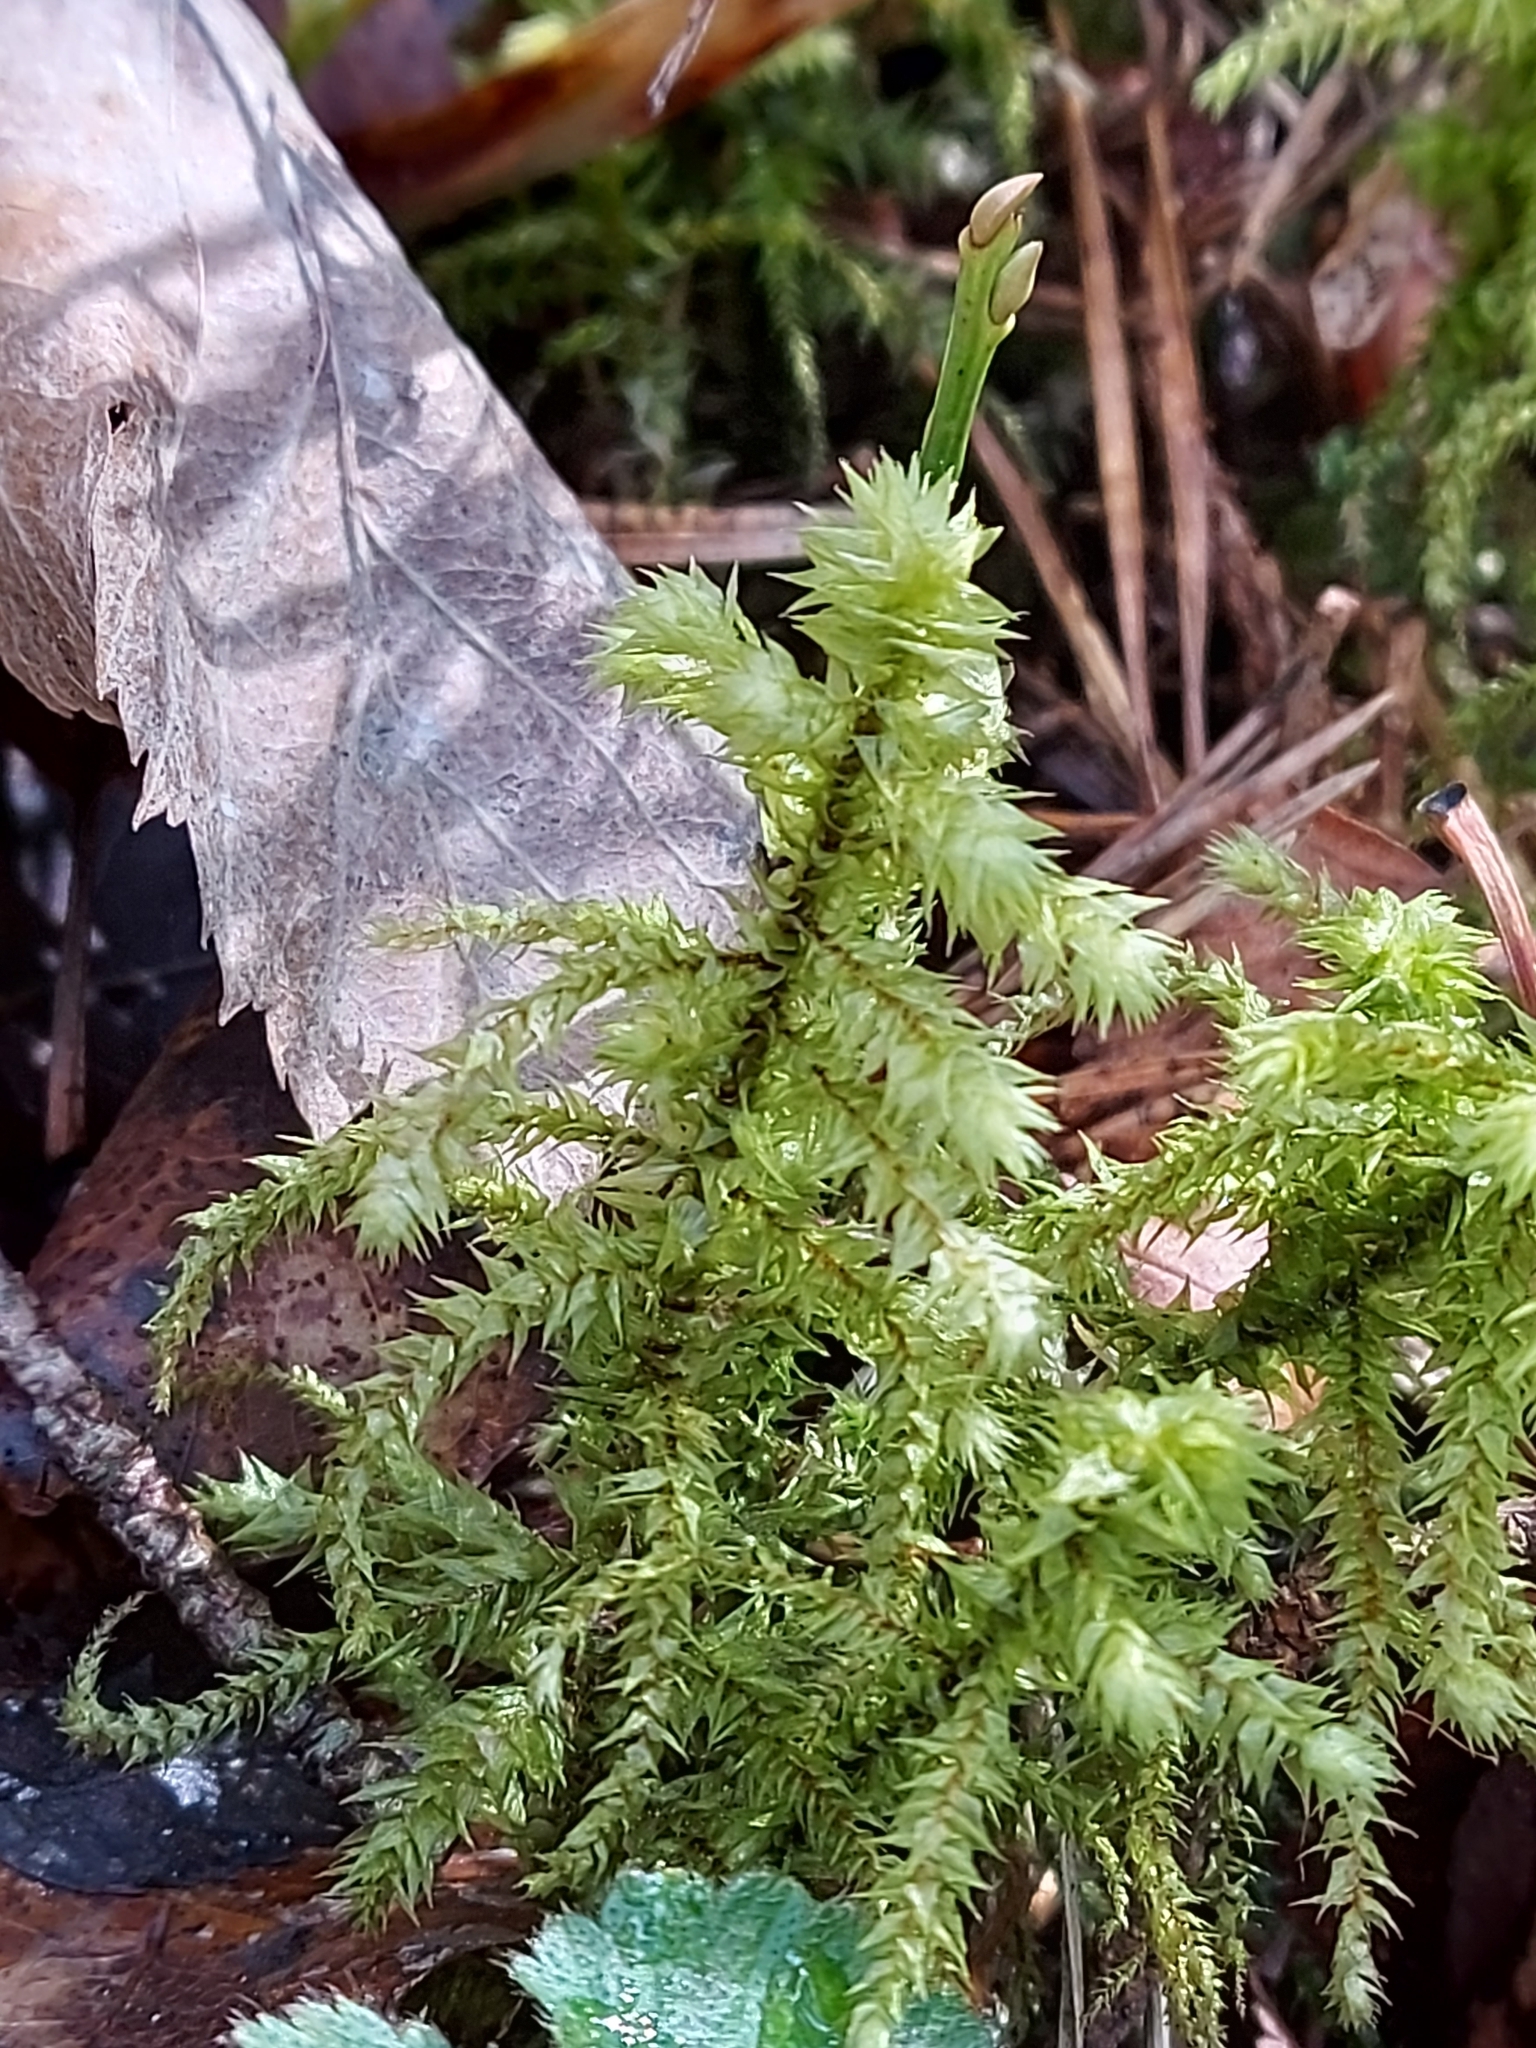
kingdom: Plantae
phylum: Bryophyta
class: Bryopsida
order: Hypnales
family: Hylocomiaceae
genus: Hylocomiadelphus
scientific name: Hylocomiadelphus triquetrus
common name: Rough goose neck moss
